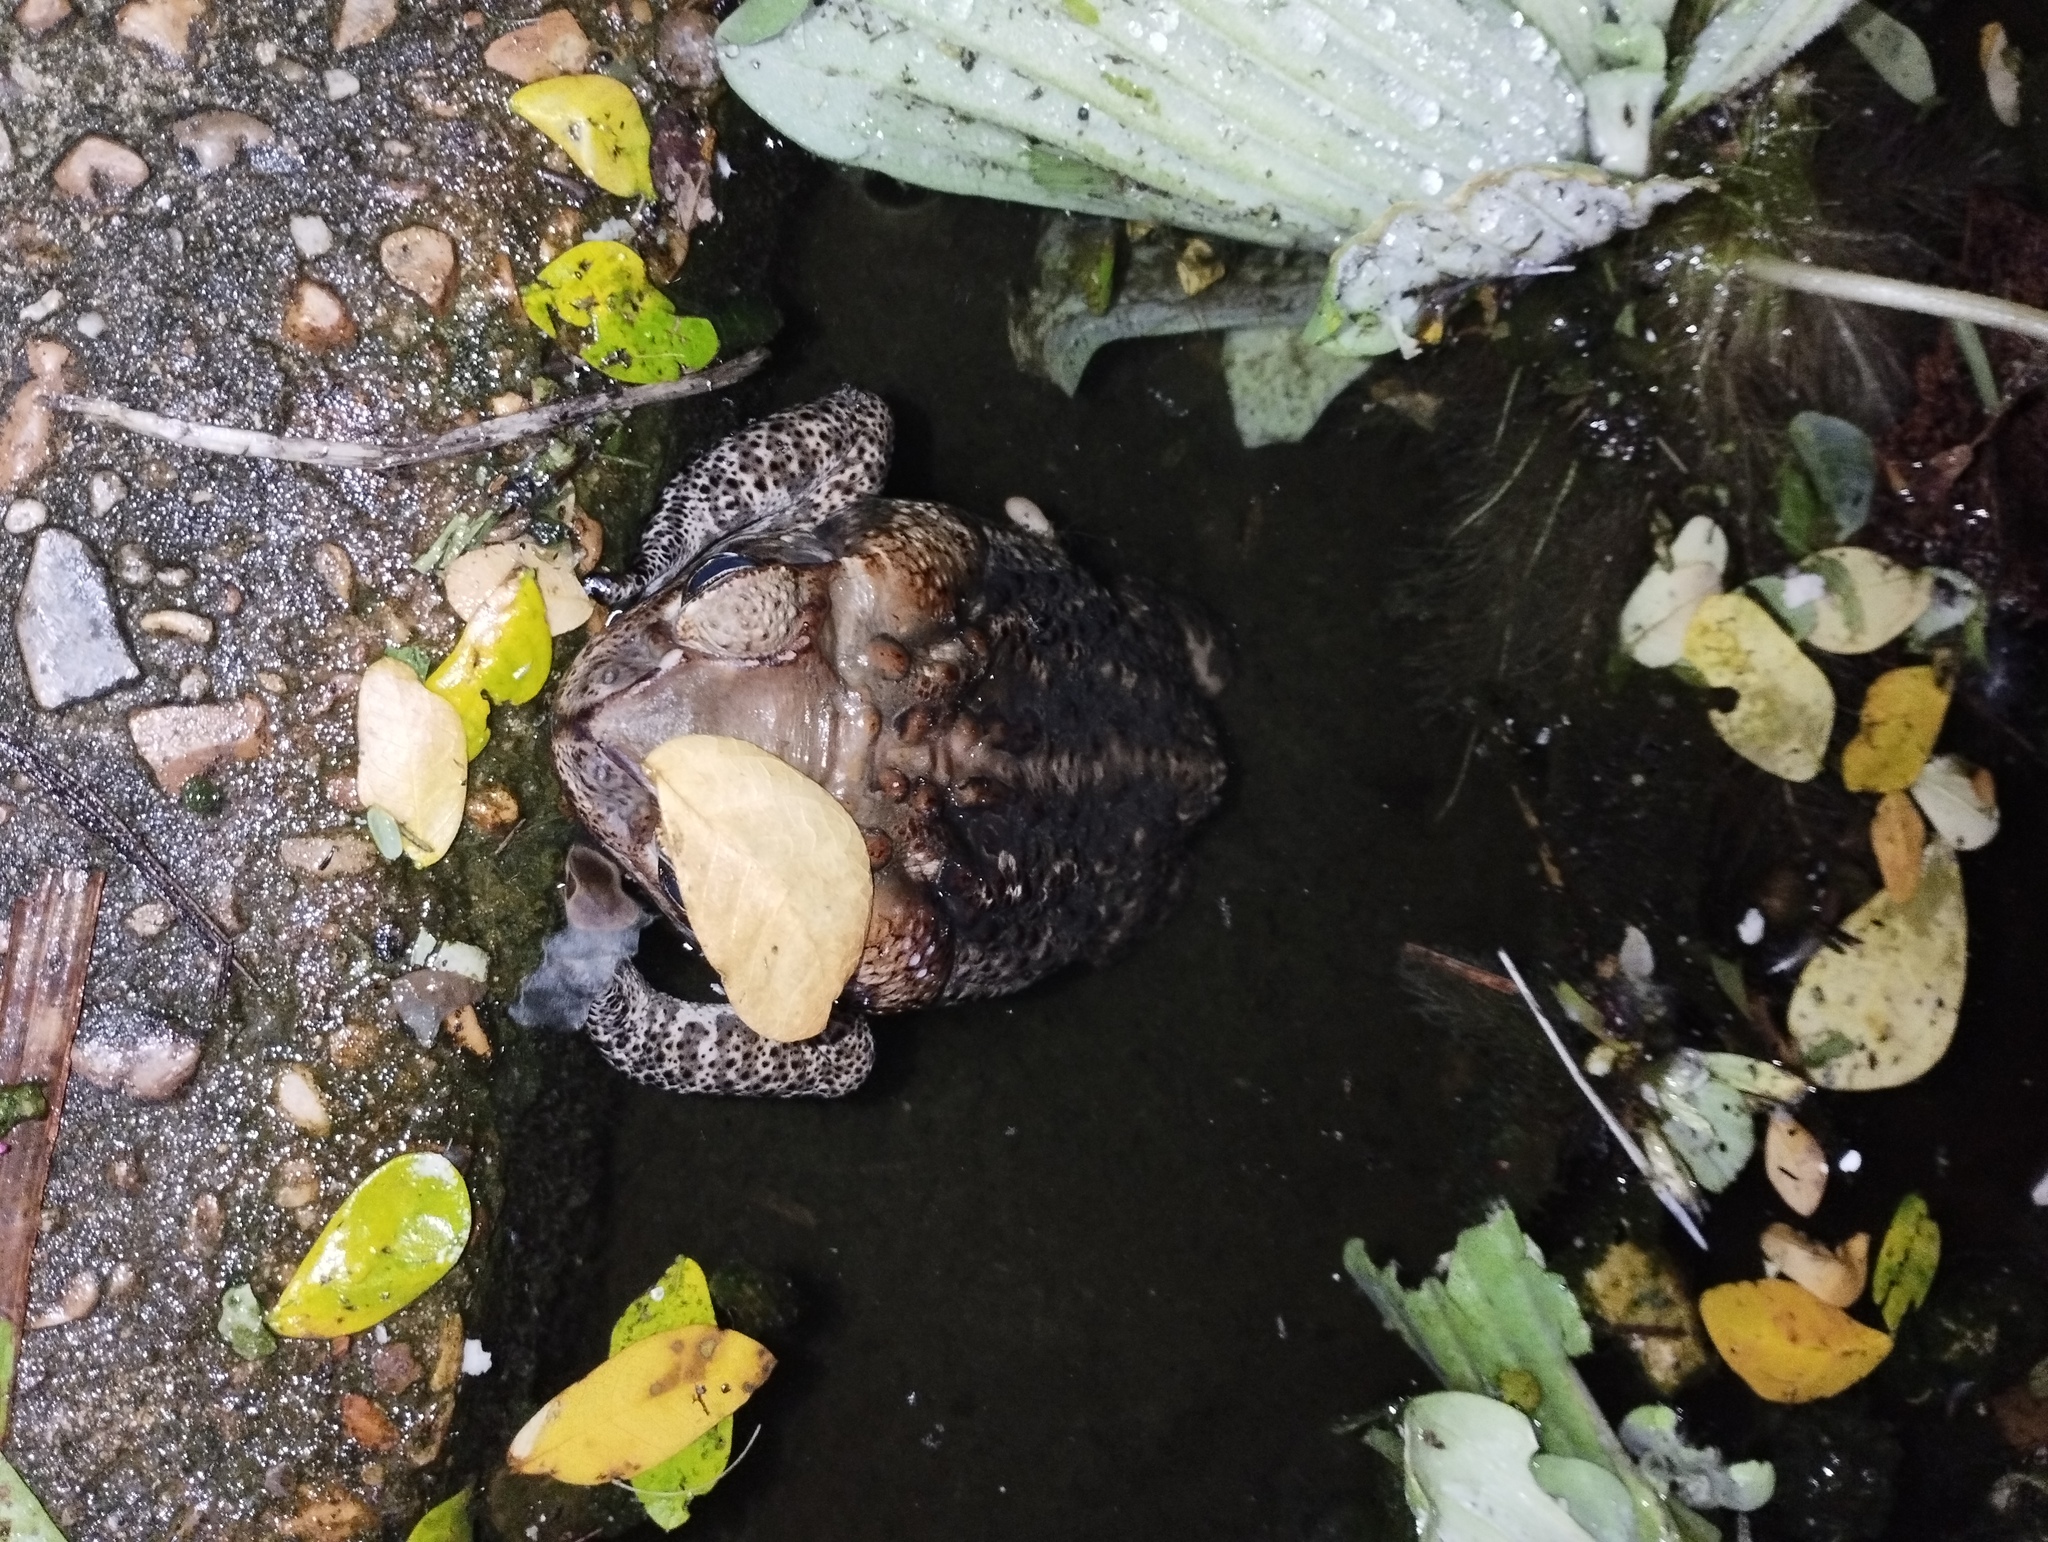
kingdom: Animalia
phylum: Chordata
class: Amphibia
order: Anura
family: Bufonidae
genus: Rhinella
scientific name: Rhinella marina
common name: Cane toad
